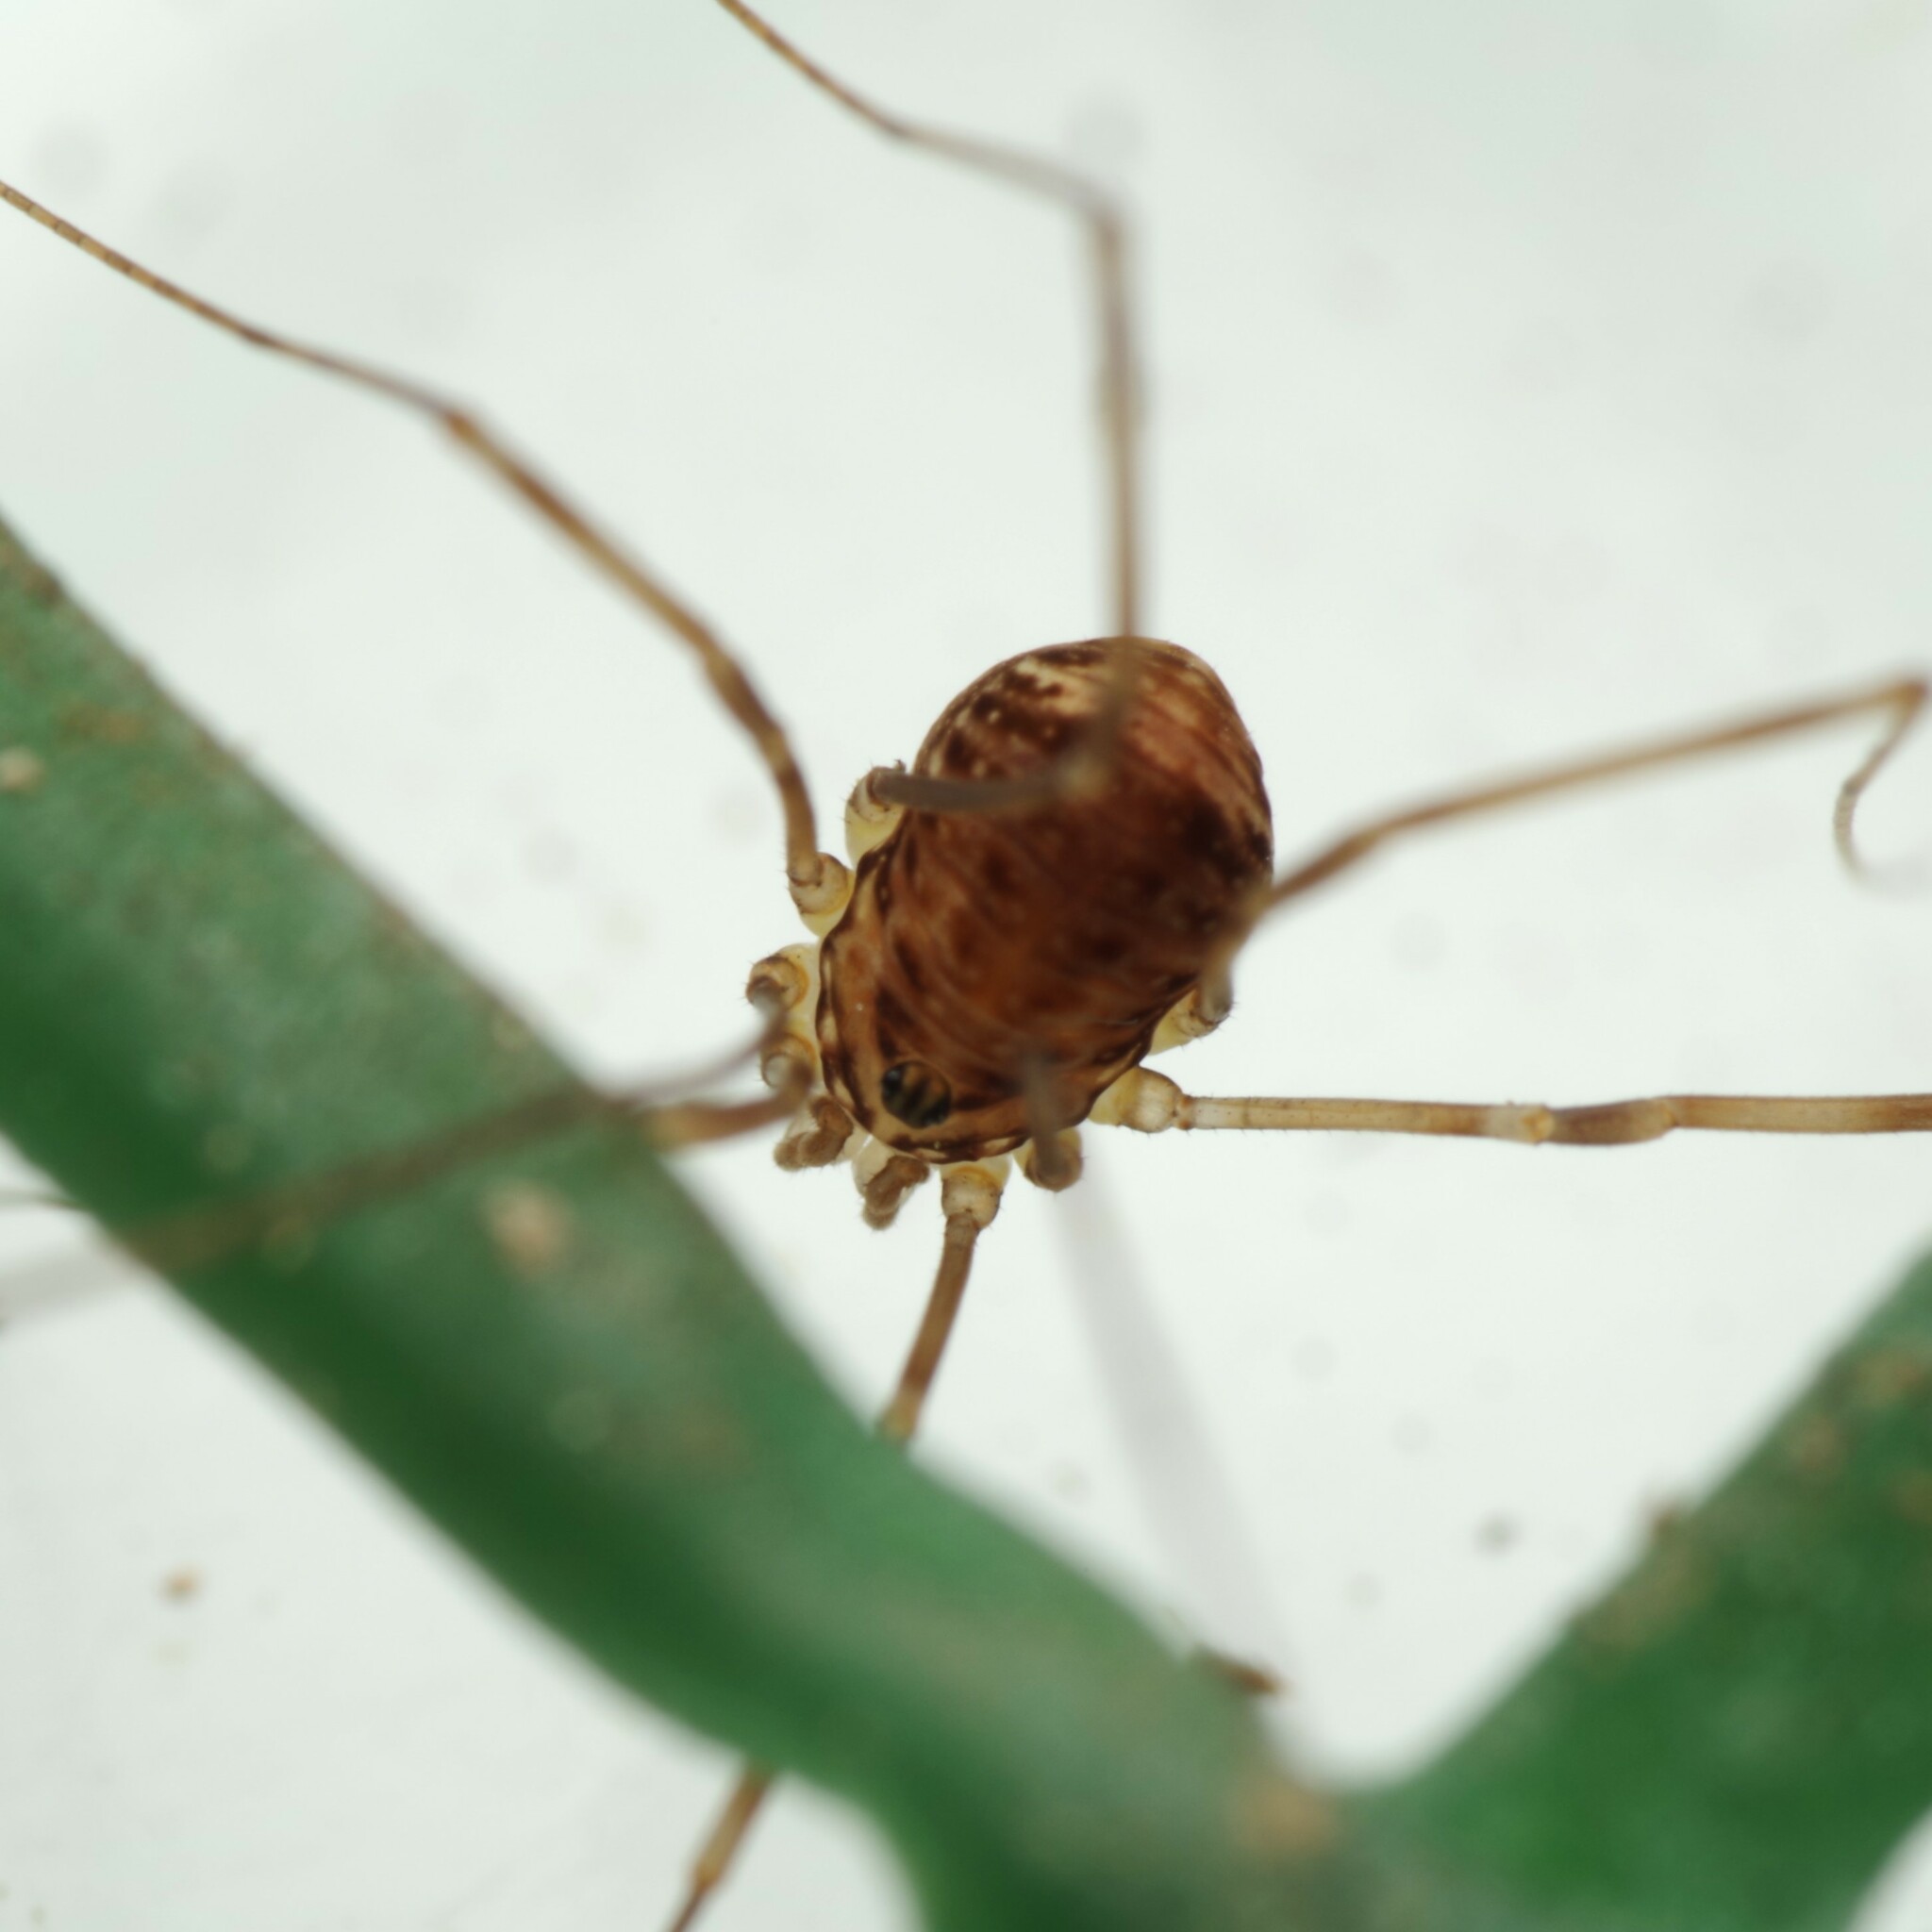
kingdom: Animalia
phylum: Arthropoda
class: Arachnida
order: Opiliones
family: Sclerosomatidae
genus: Leiobunum
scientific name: Leiobunum blackwalli
